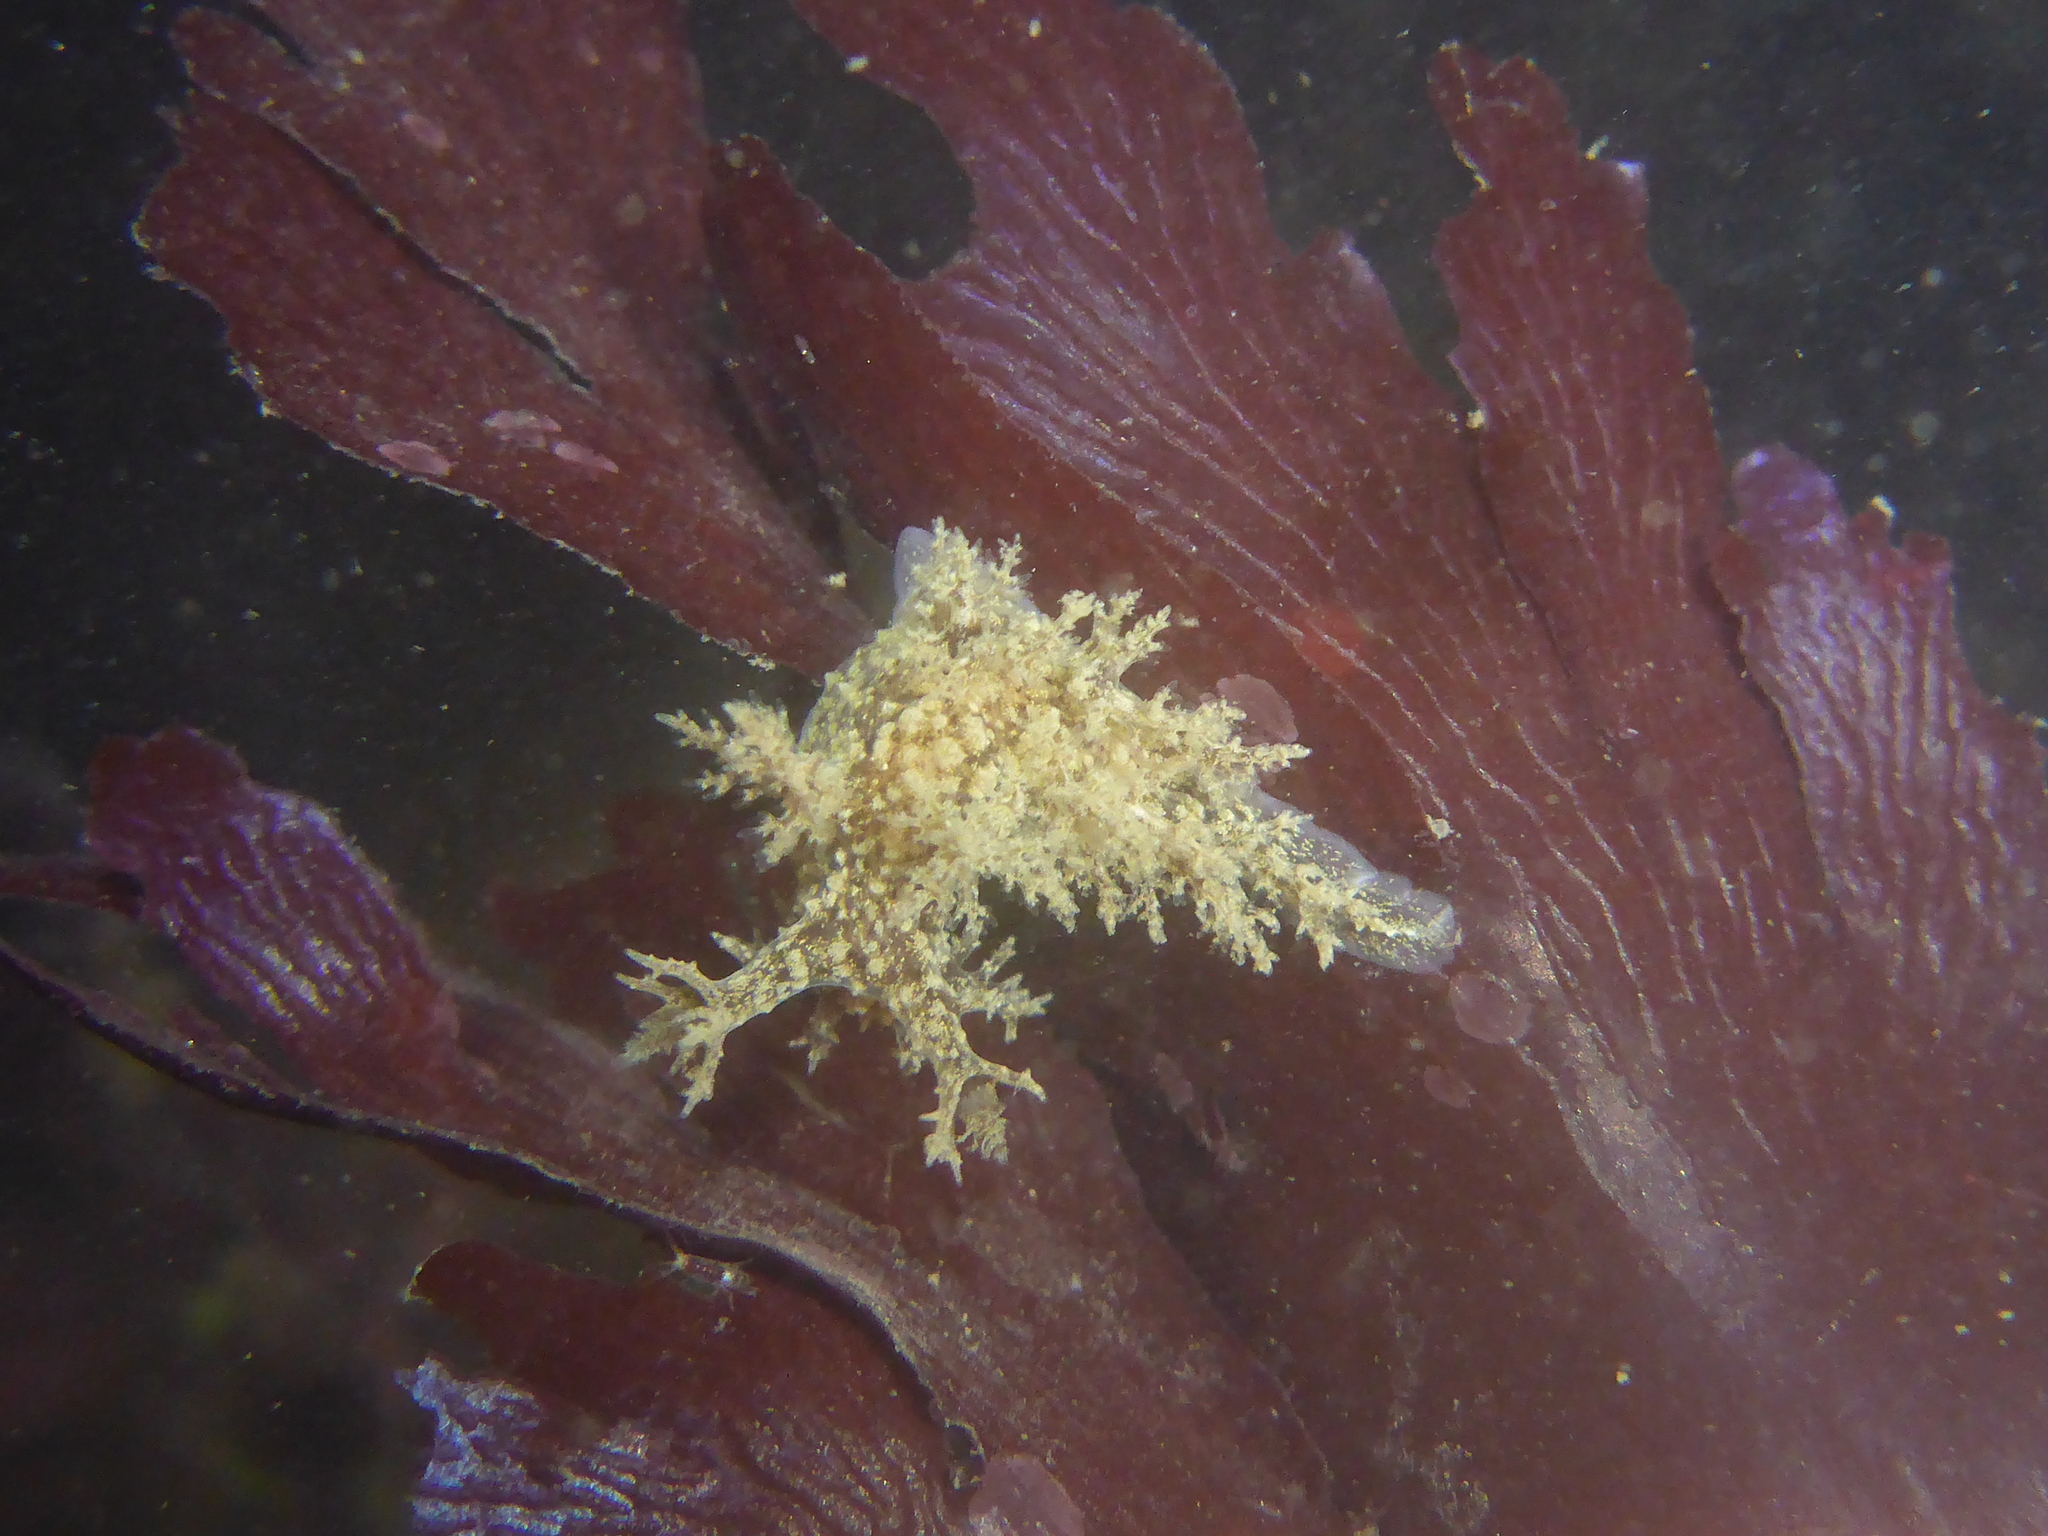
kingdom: Animalia
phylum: Mollusca
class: Gastropoda
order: Nudibranchia
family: Dendronotidae
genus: Dendronotus
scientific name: Dendronotus venustus
